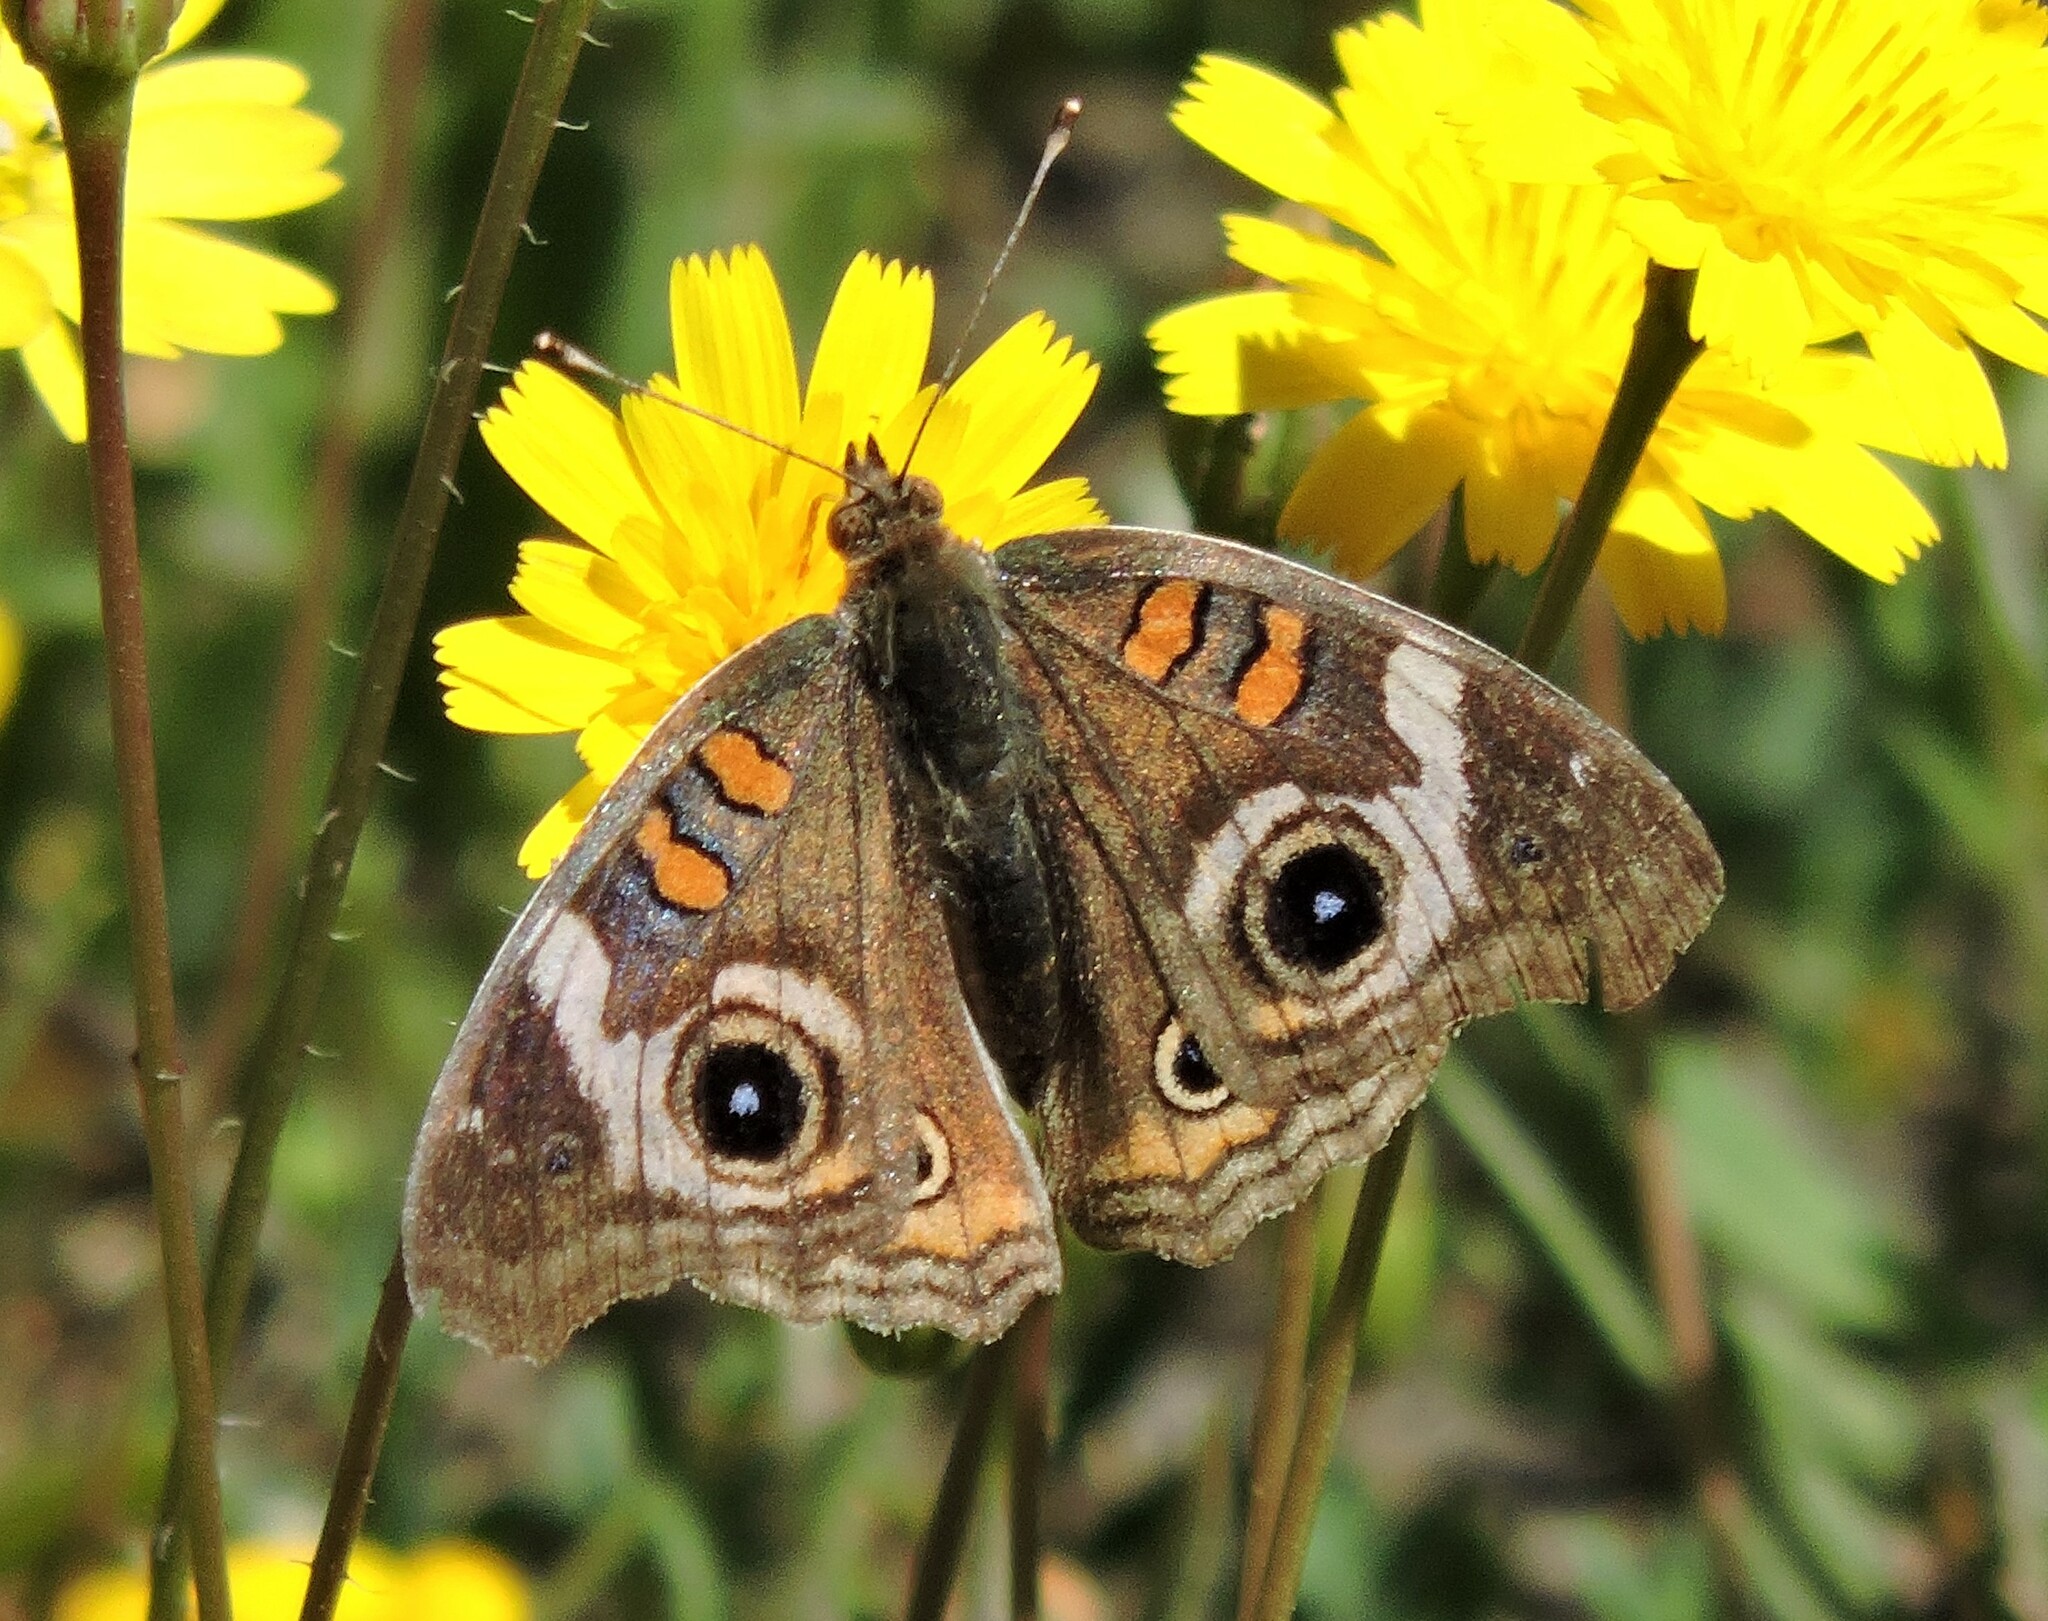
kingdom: Animalia
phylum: Arthropoda
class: Insecta
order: Lepidoptera
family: Nymphalidae
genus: Junonia
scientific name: Junonia grisea
